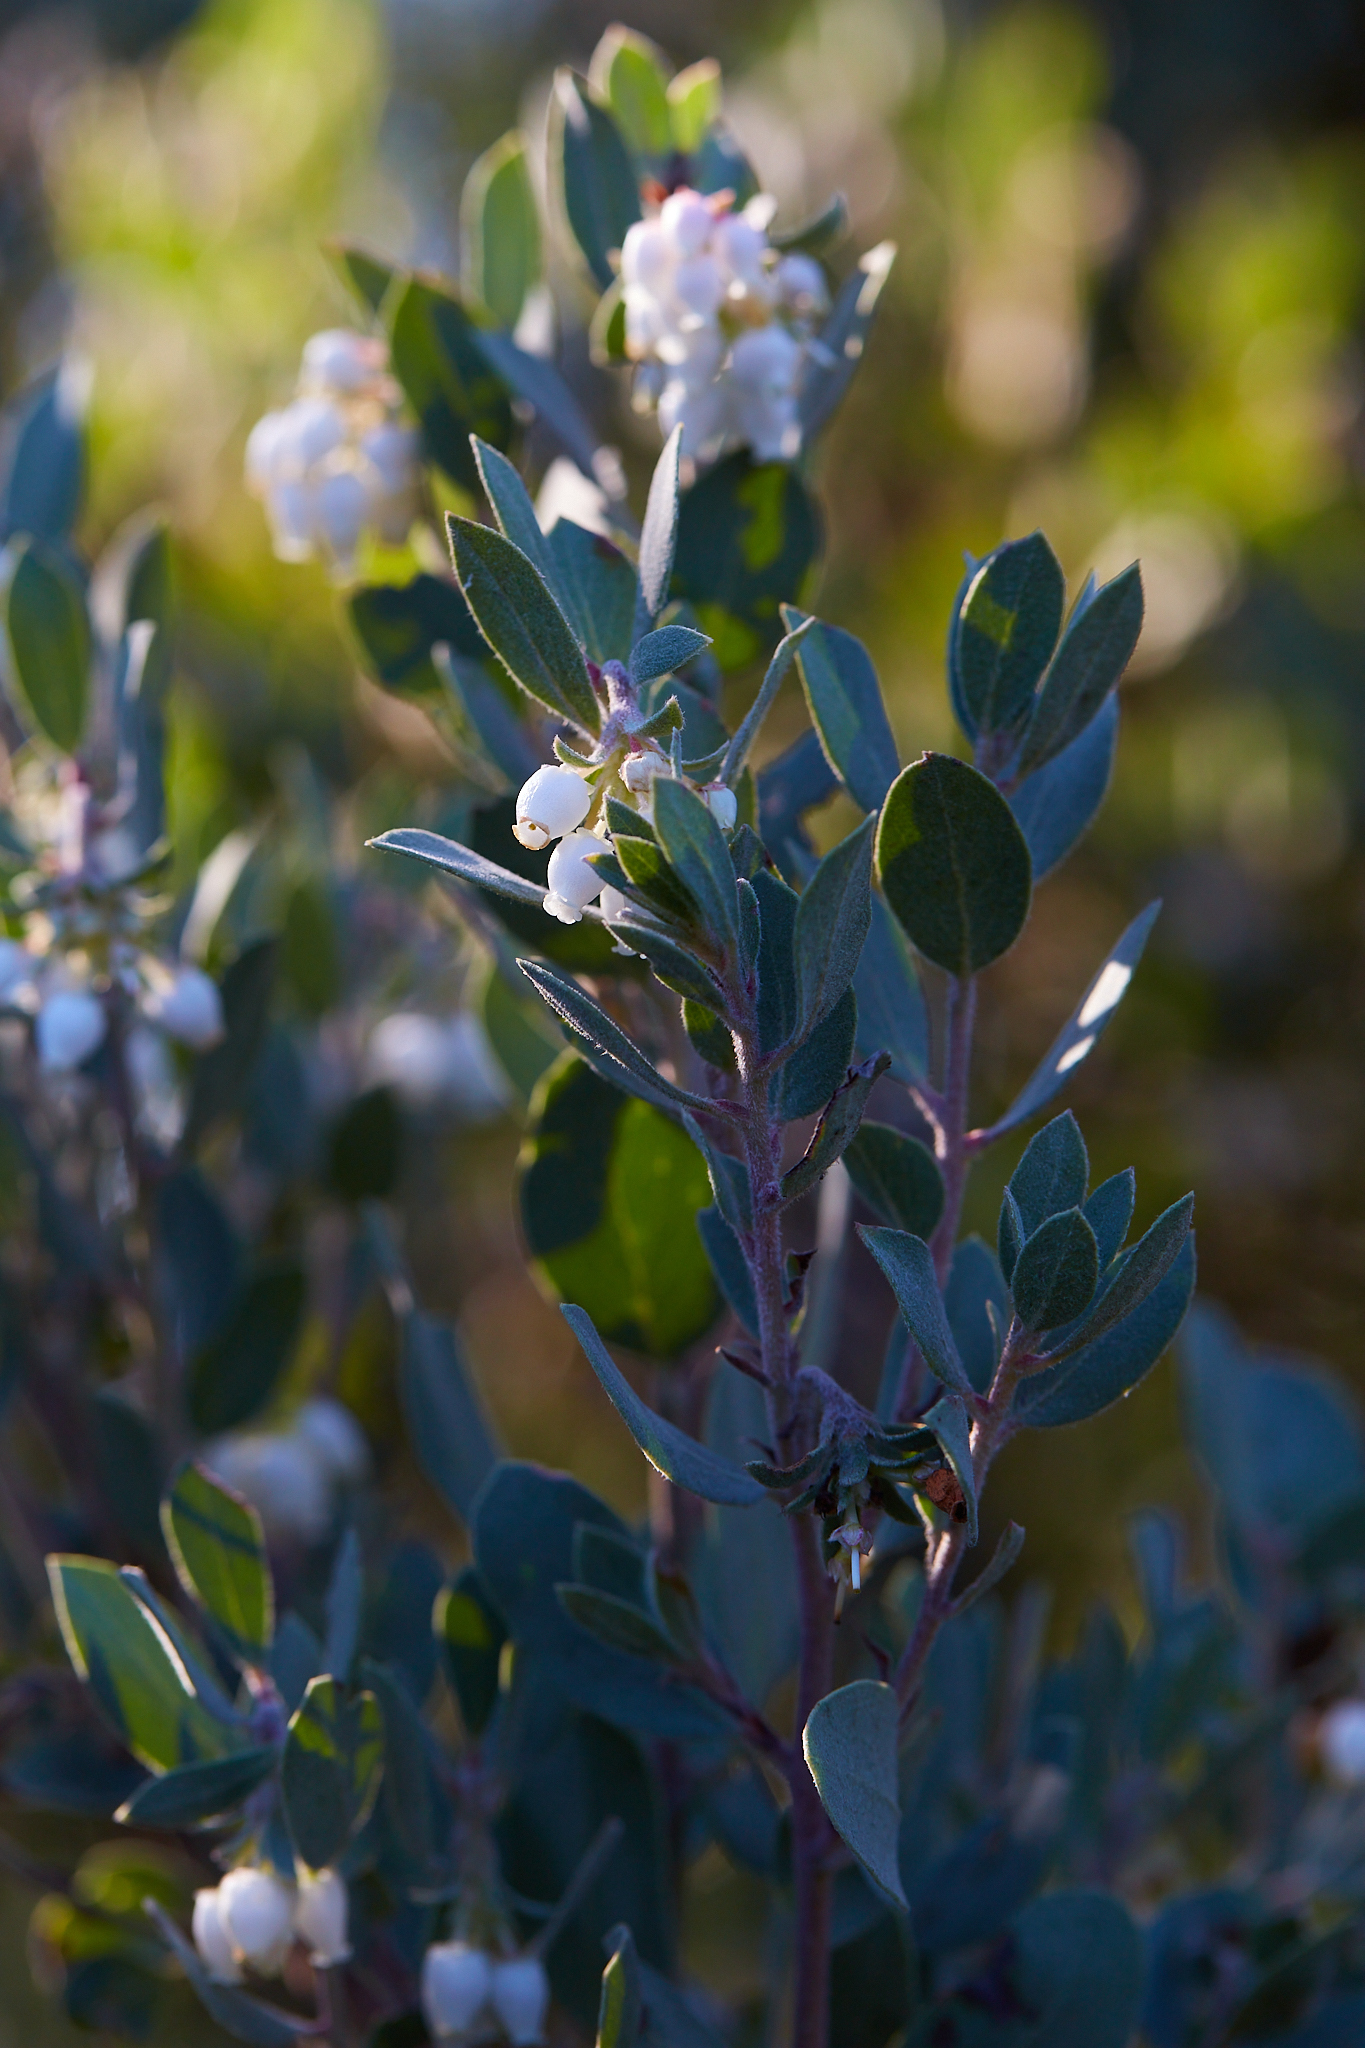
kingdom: Plantae
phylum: Tracheophyta
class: Magnoliopsida
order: Ericales
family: Ericaceae
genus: Arctostaphylos
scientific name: Arctostaphylos silvicola
